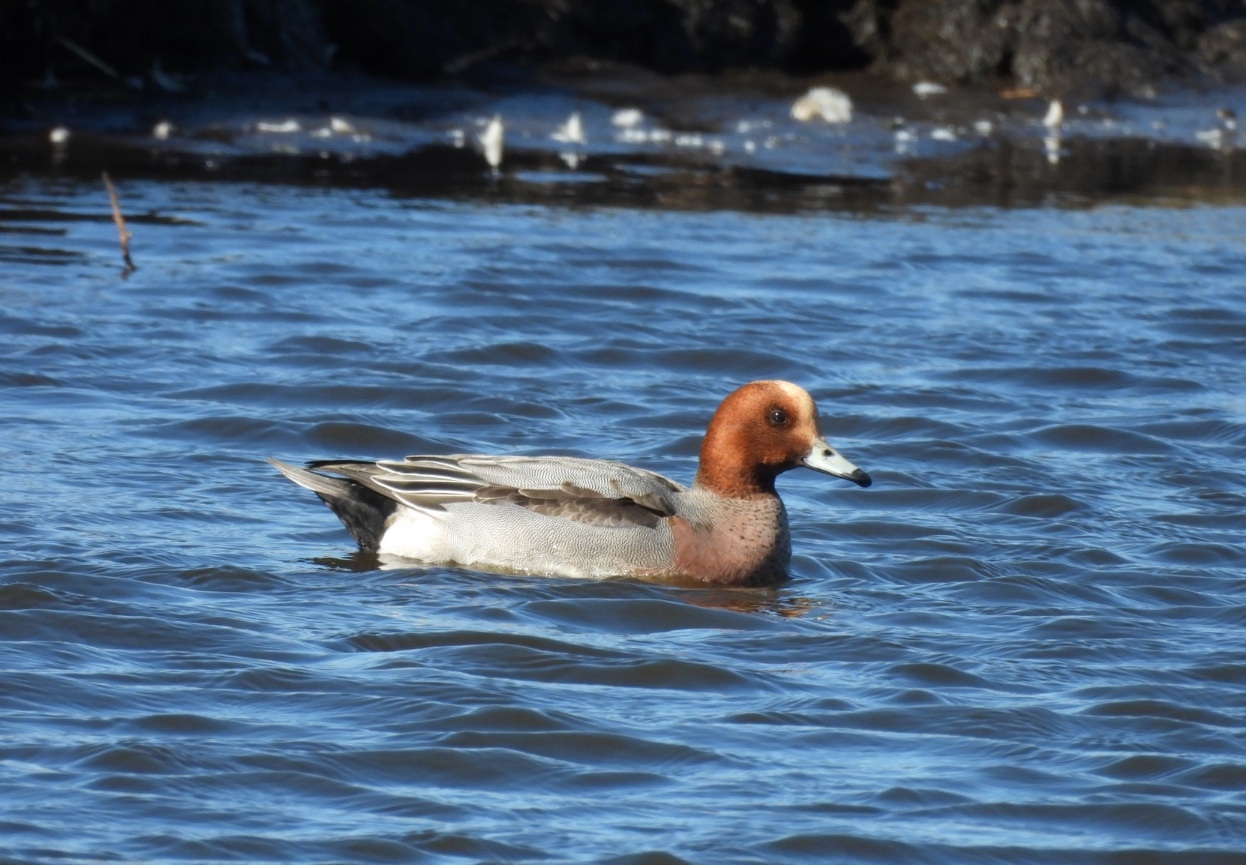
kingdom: Animalia
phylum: Chordata
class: Aves
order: Anseriformes
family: Anatidae
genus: Mareca
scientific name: Mareca penelope
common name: Eurasian wigeon
